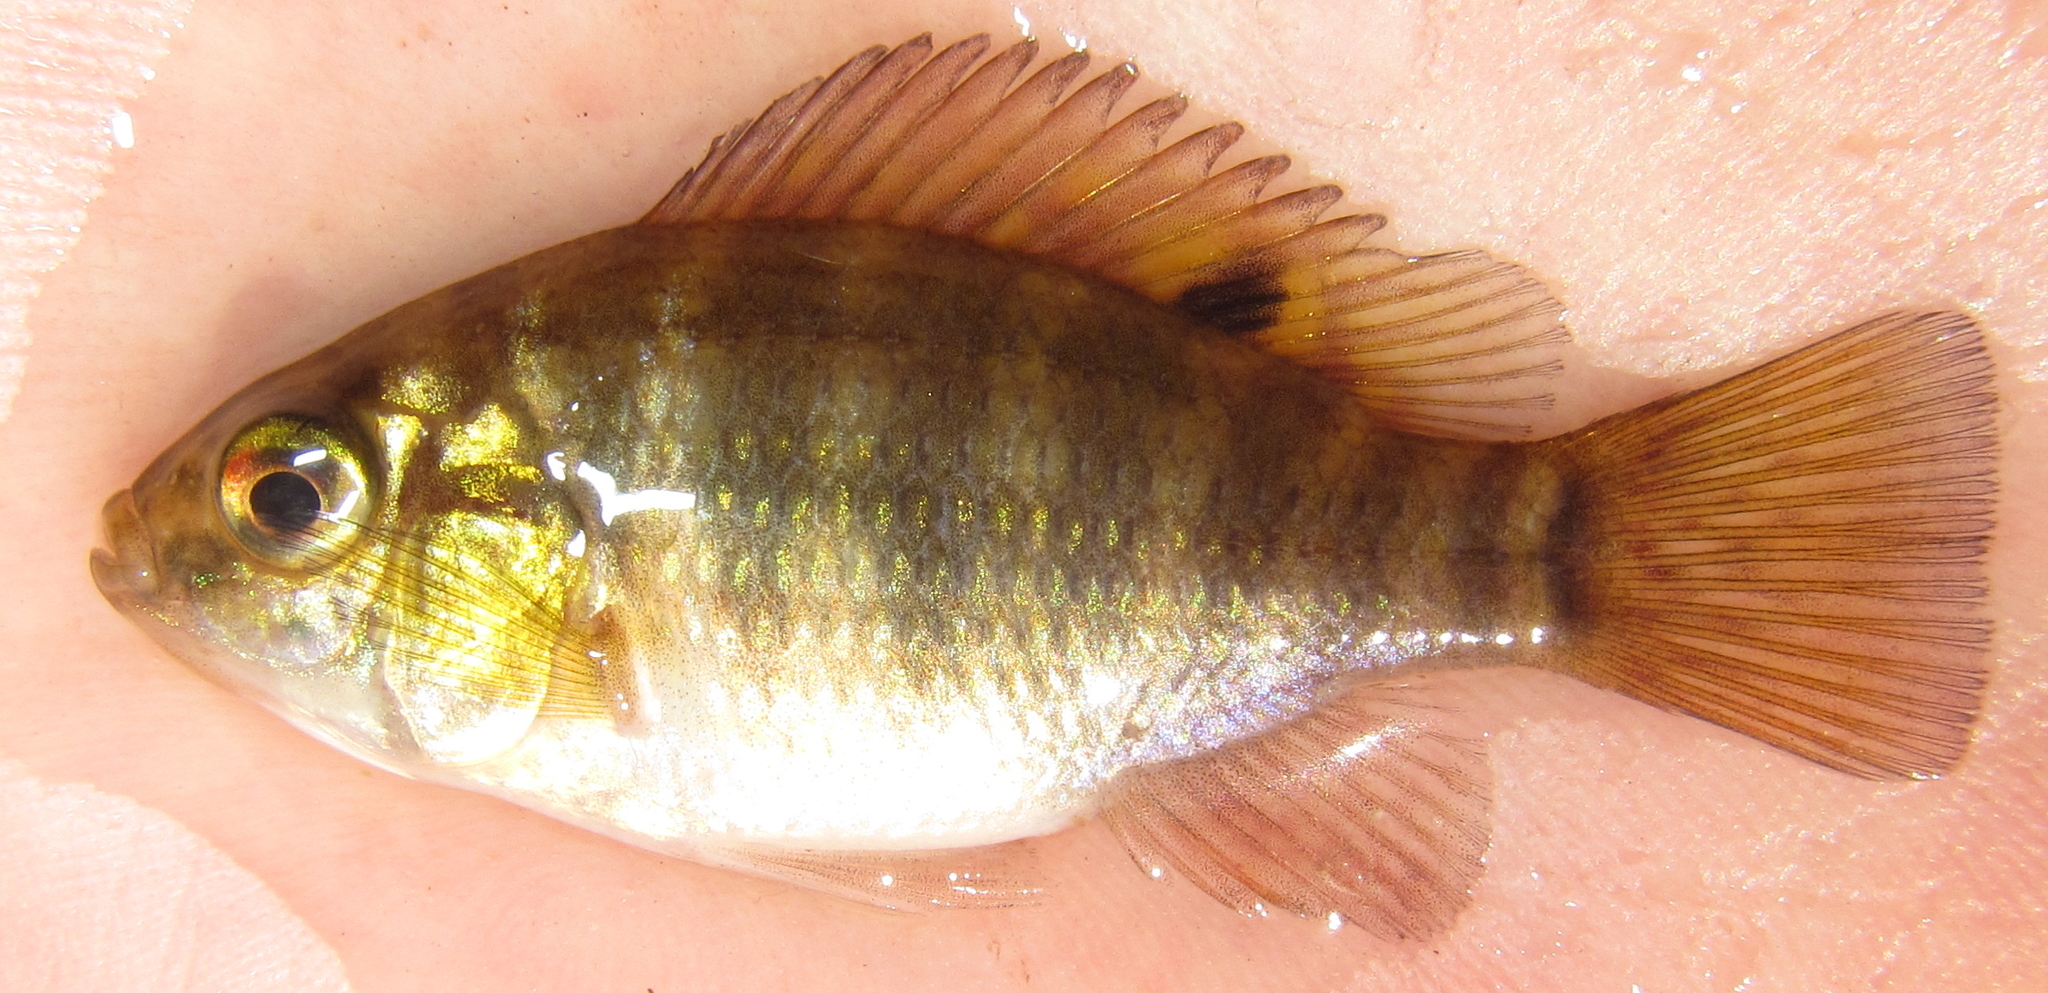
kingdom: Animalia
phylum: Chordata
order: Perciformes
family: Cichlidae
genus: Tilapia
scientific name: Tilapia sparrmanii
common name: Banded tilapia
